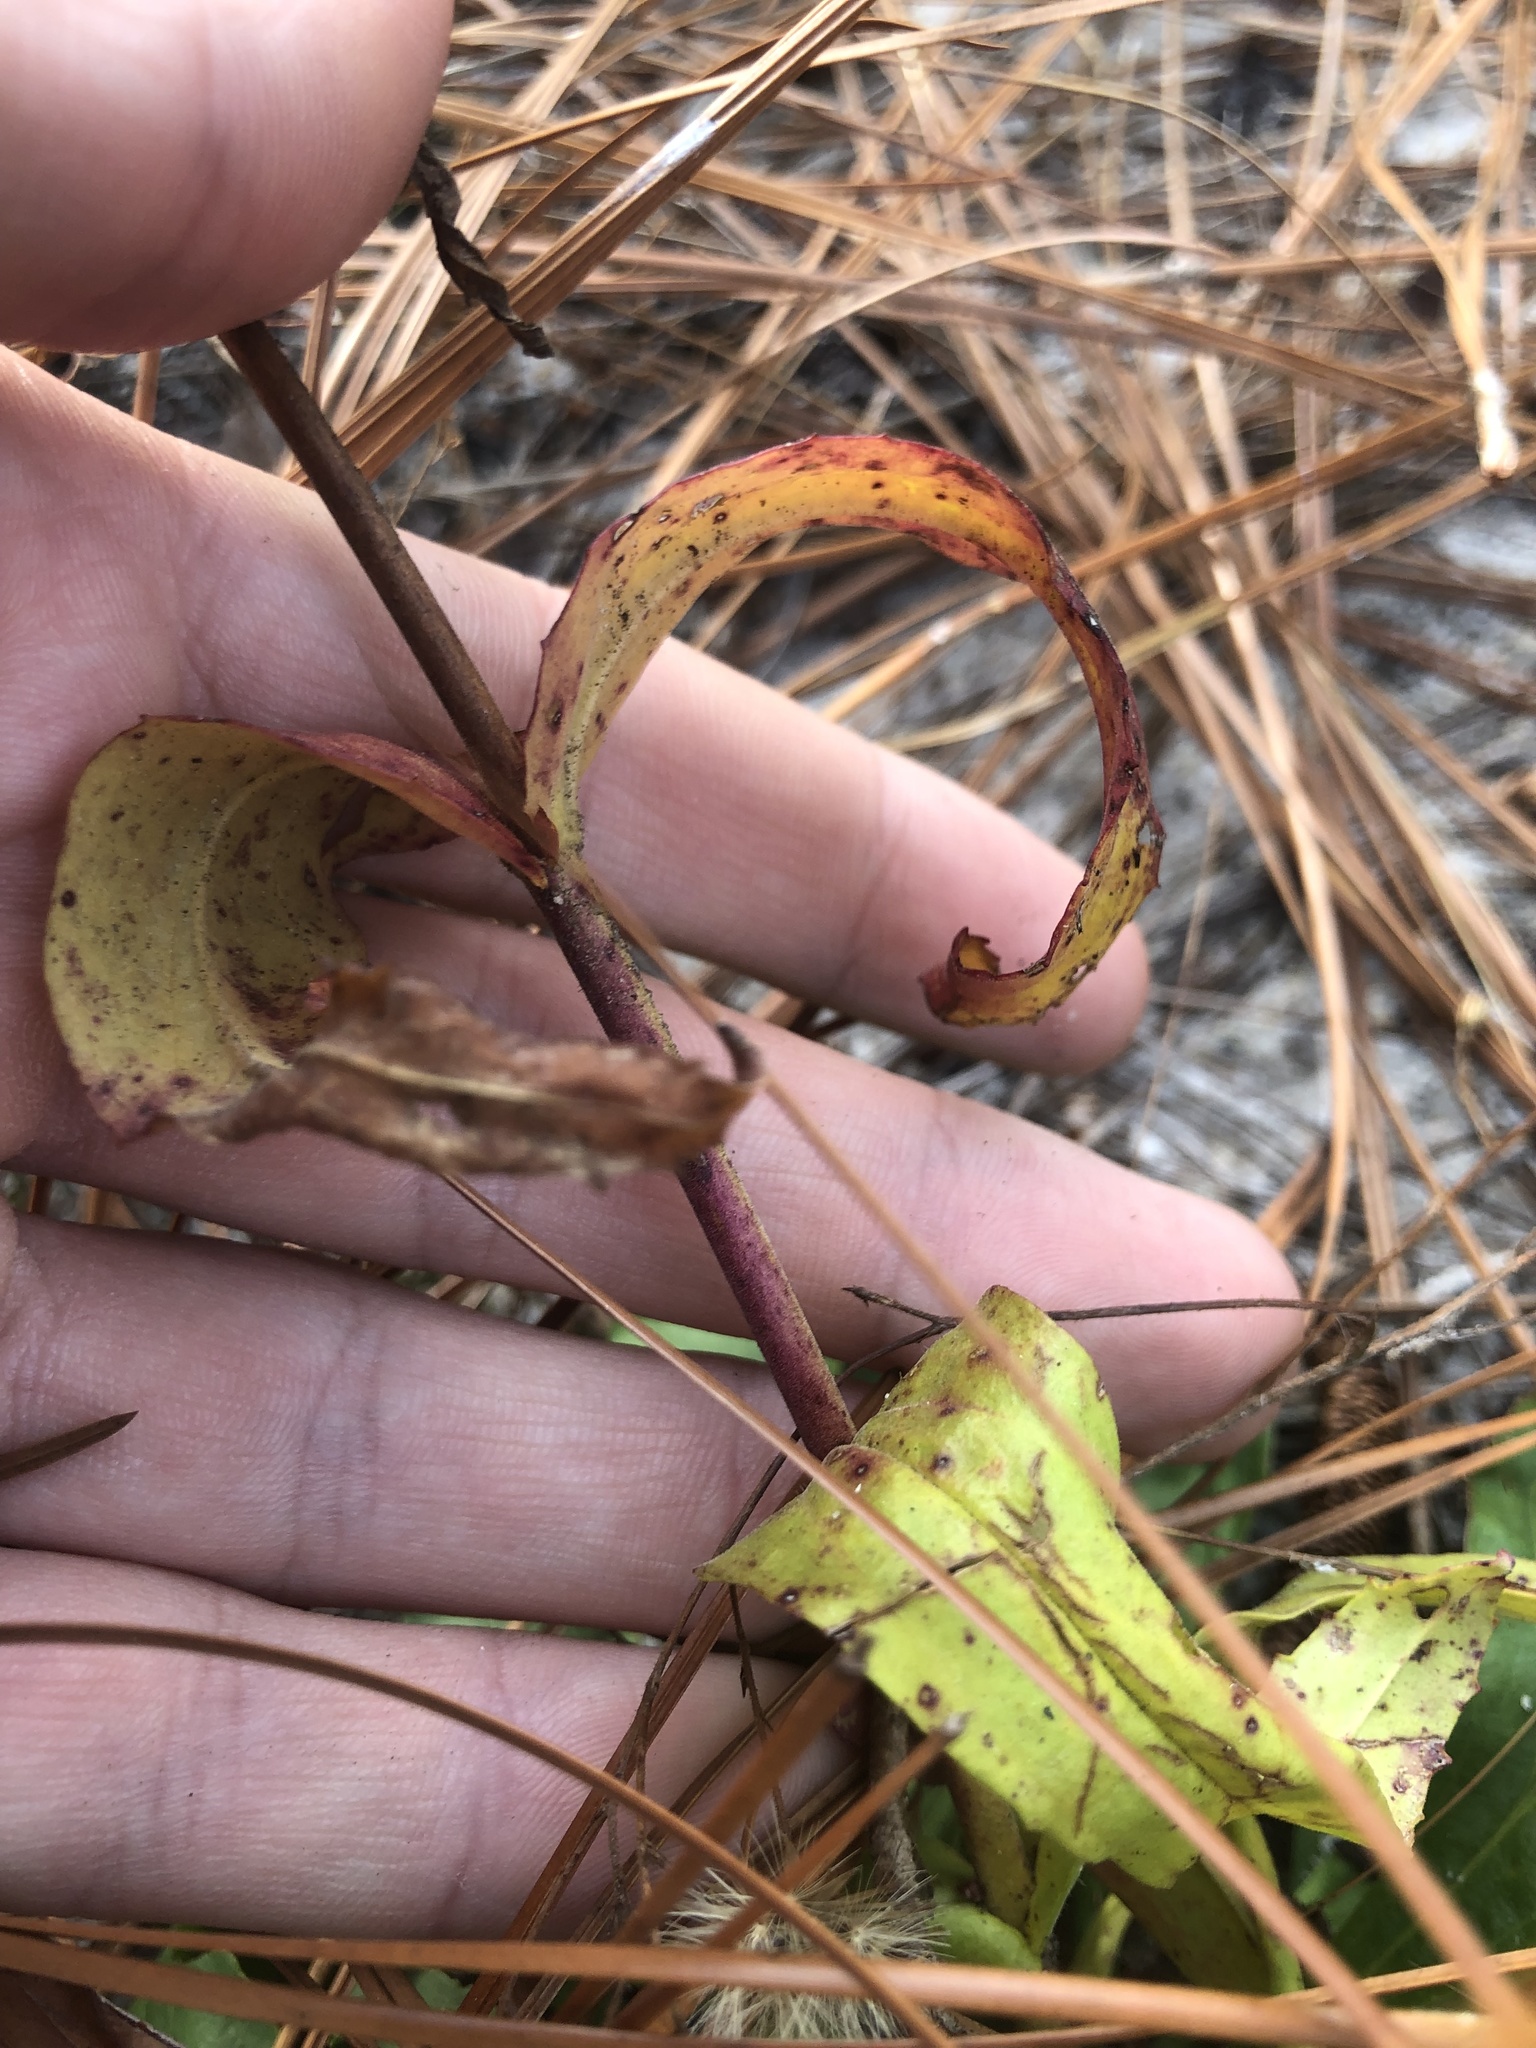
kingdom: Plantae
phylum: Tracheophyta
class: Magnoliopsida
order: Lamiales
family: Plantaginaceae
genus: Penstemon
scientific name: Penstemon australis
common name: Southeastern beardtongue
